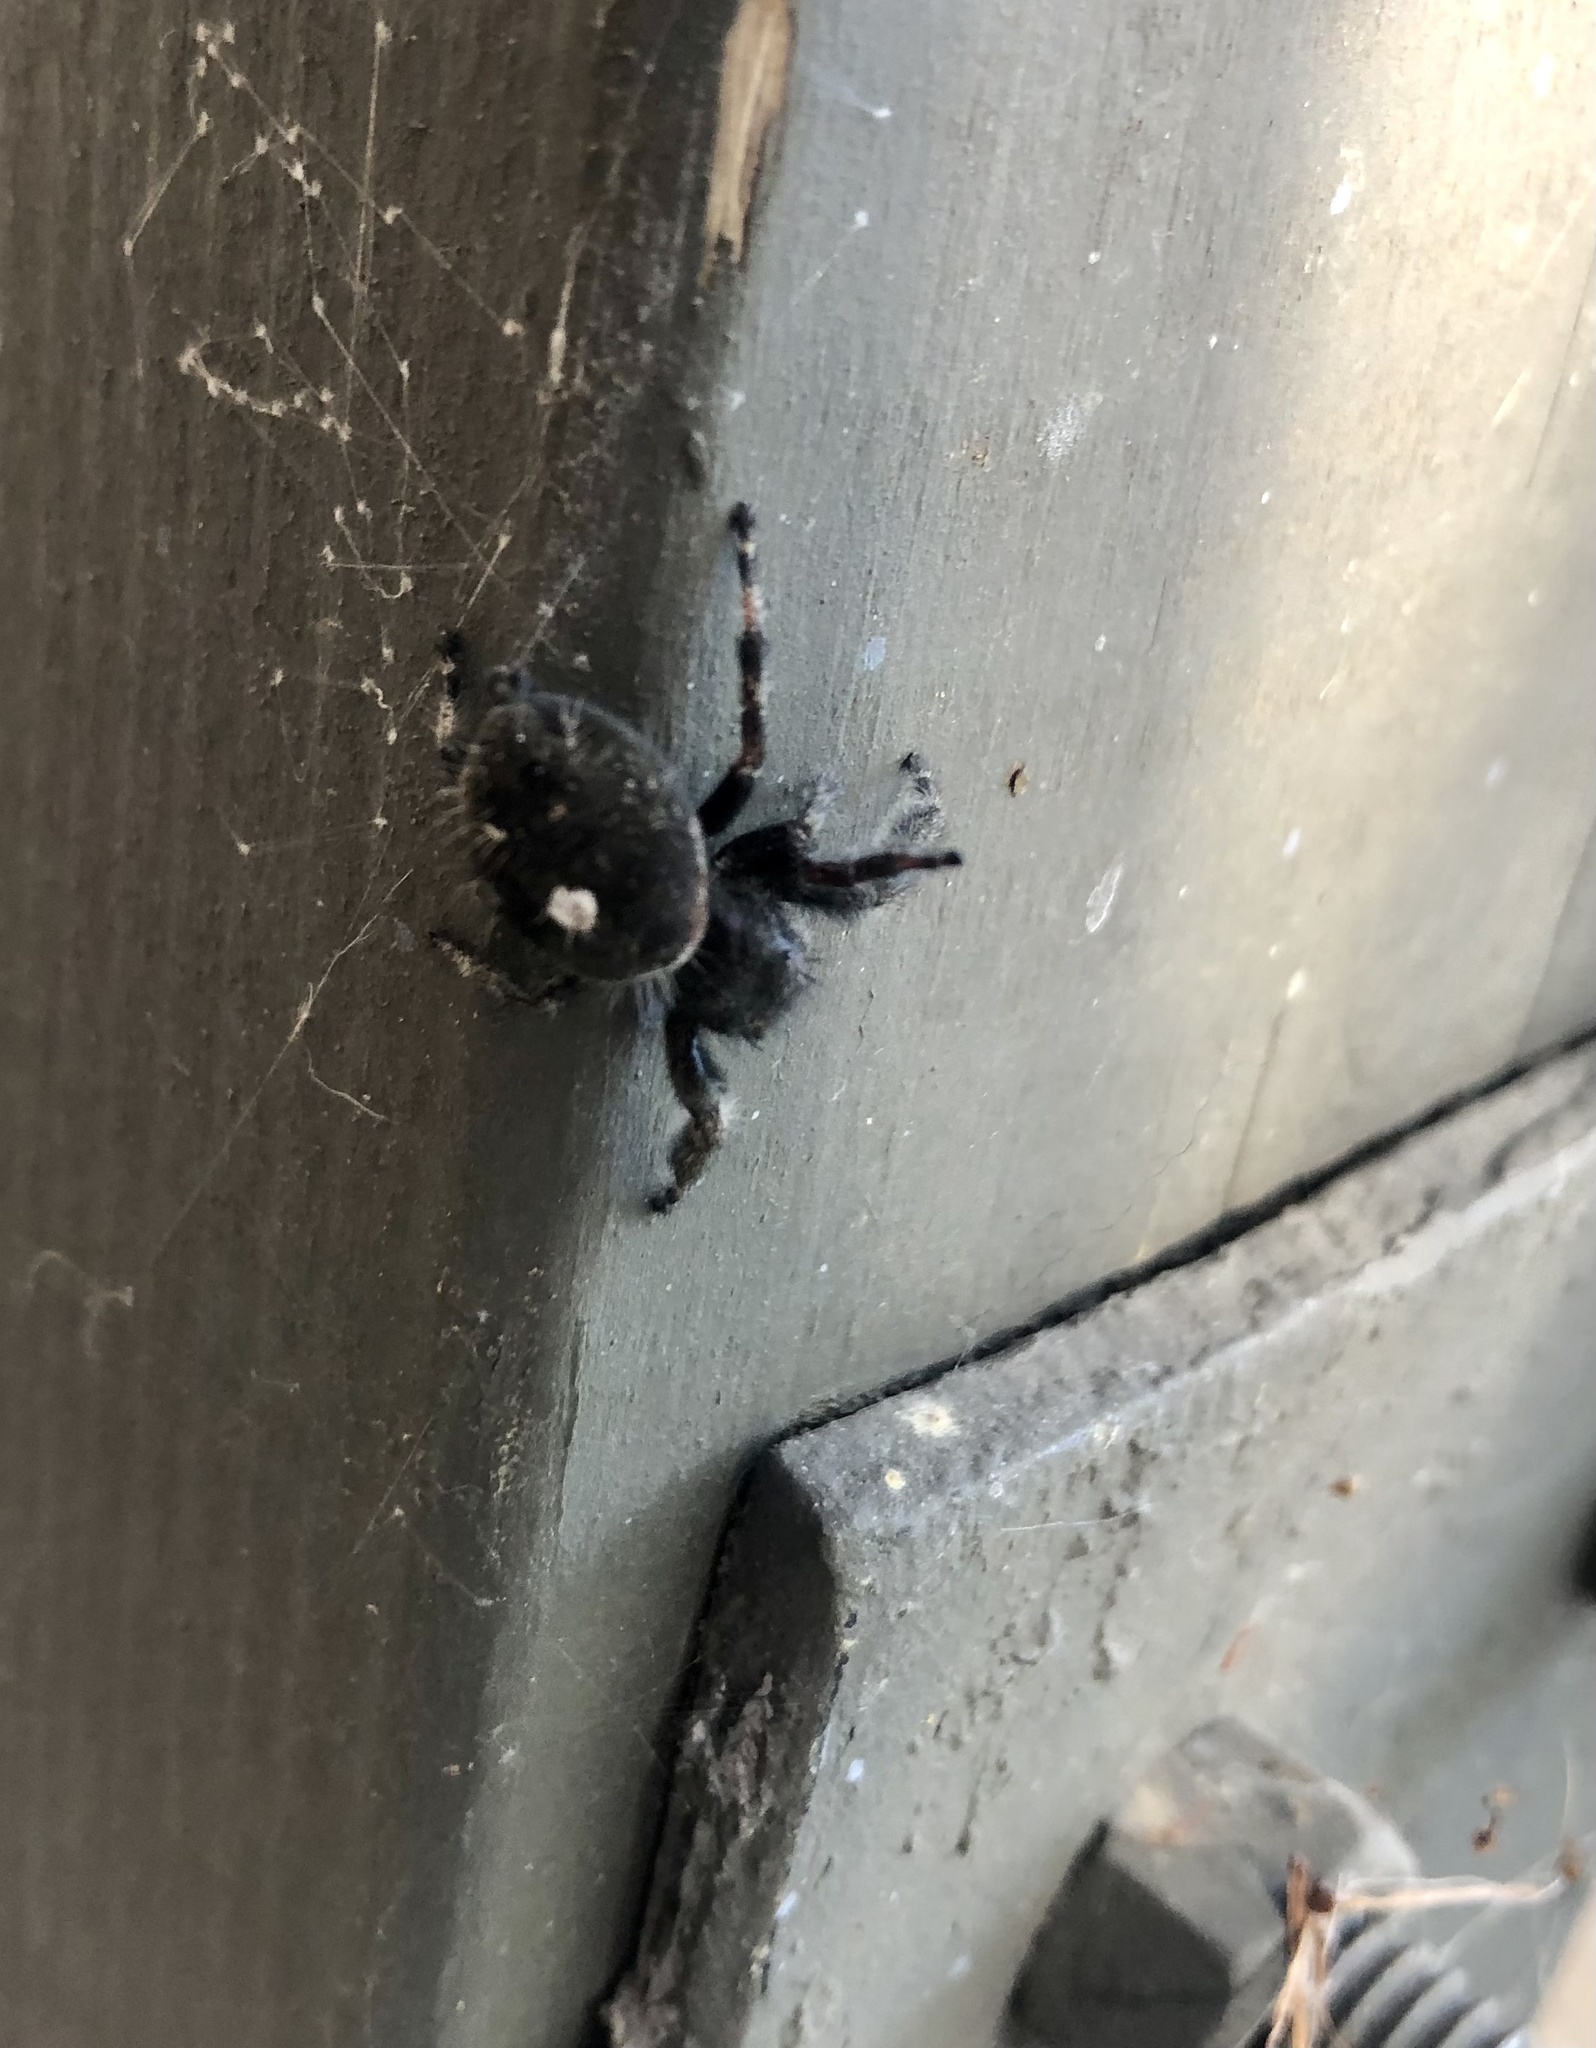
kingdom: Animalia
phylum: Arthropoda
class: Arachnida
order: Araneae
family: Salticidae
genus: Phidippus
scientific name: Phidippus audax
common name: Bold jumper
